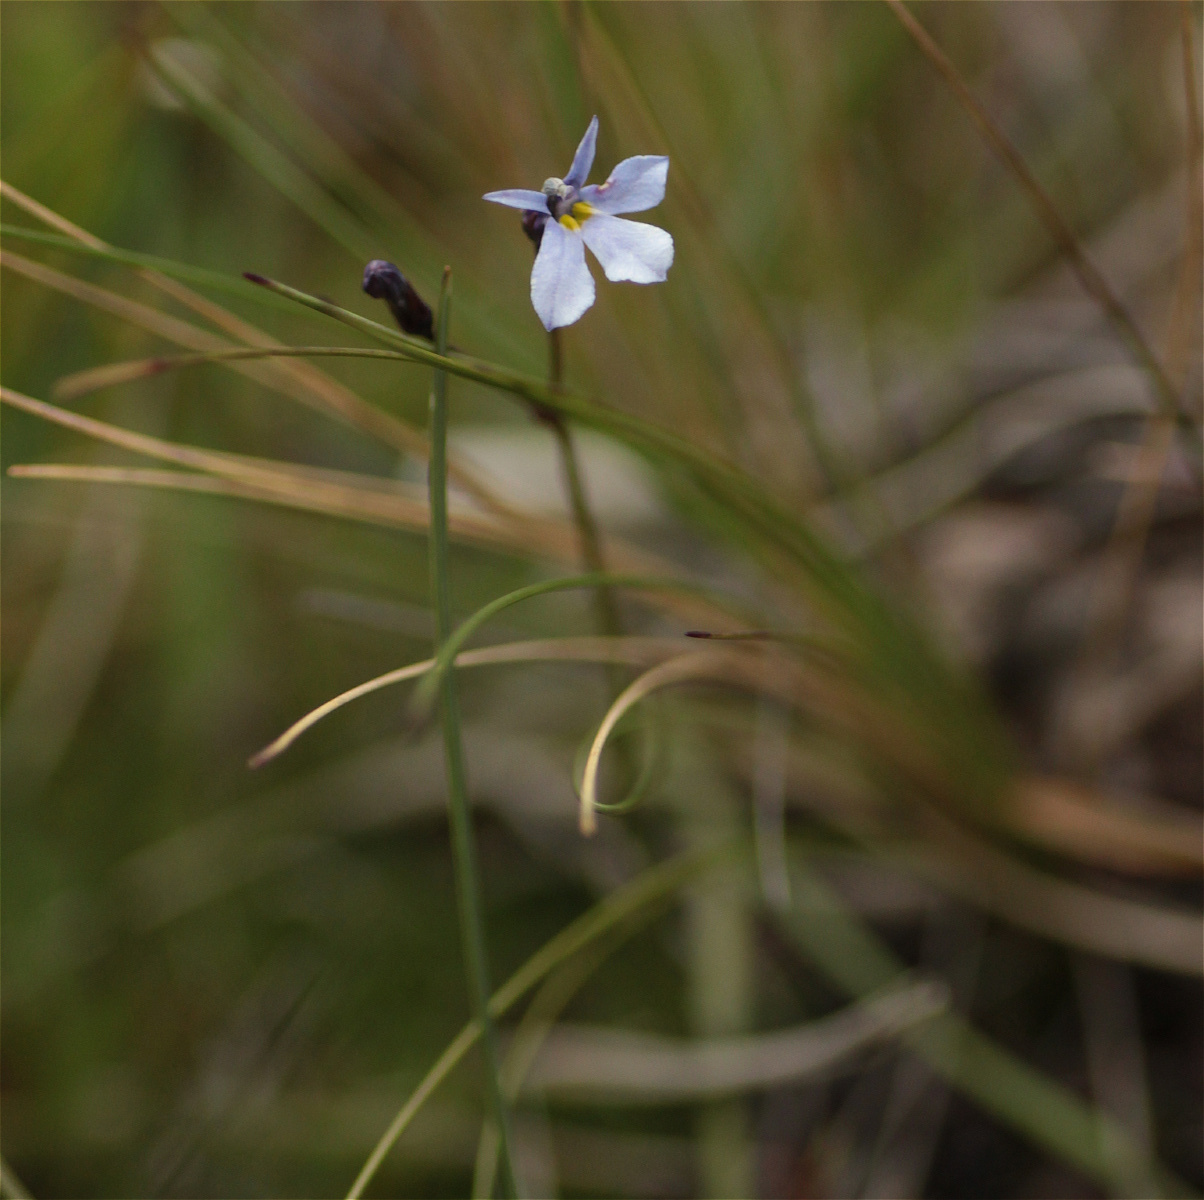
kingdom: Plantae
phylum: Tracheophyta
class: Magnoliopsida
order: Asterales
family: Campanulaceae
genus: Lobelia
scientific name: Lobelia tenera
